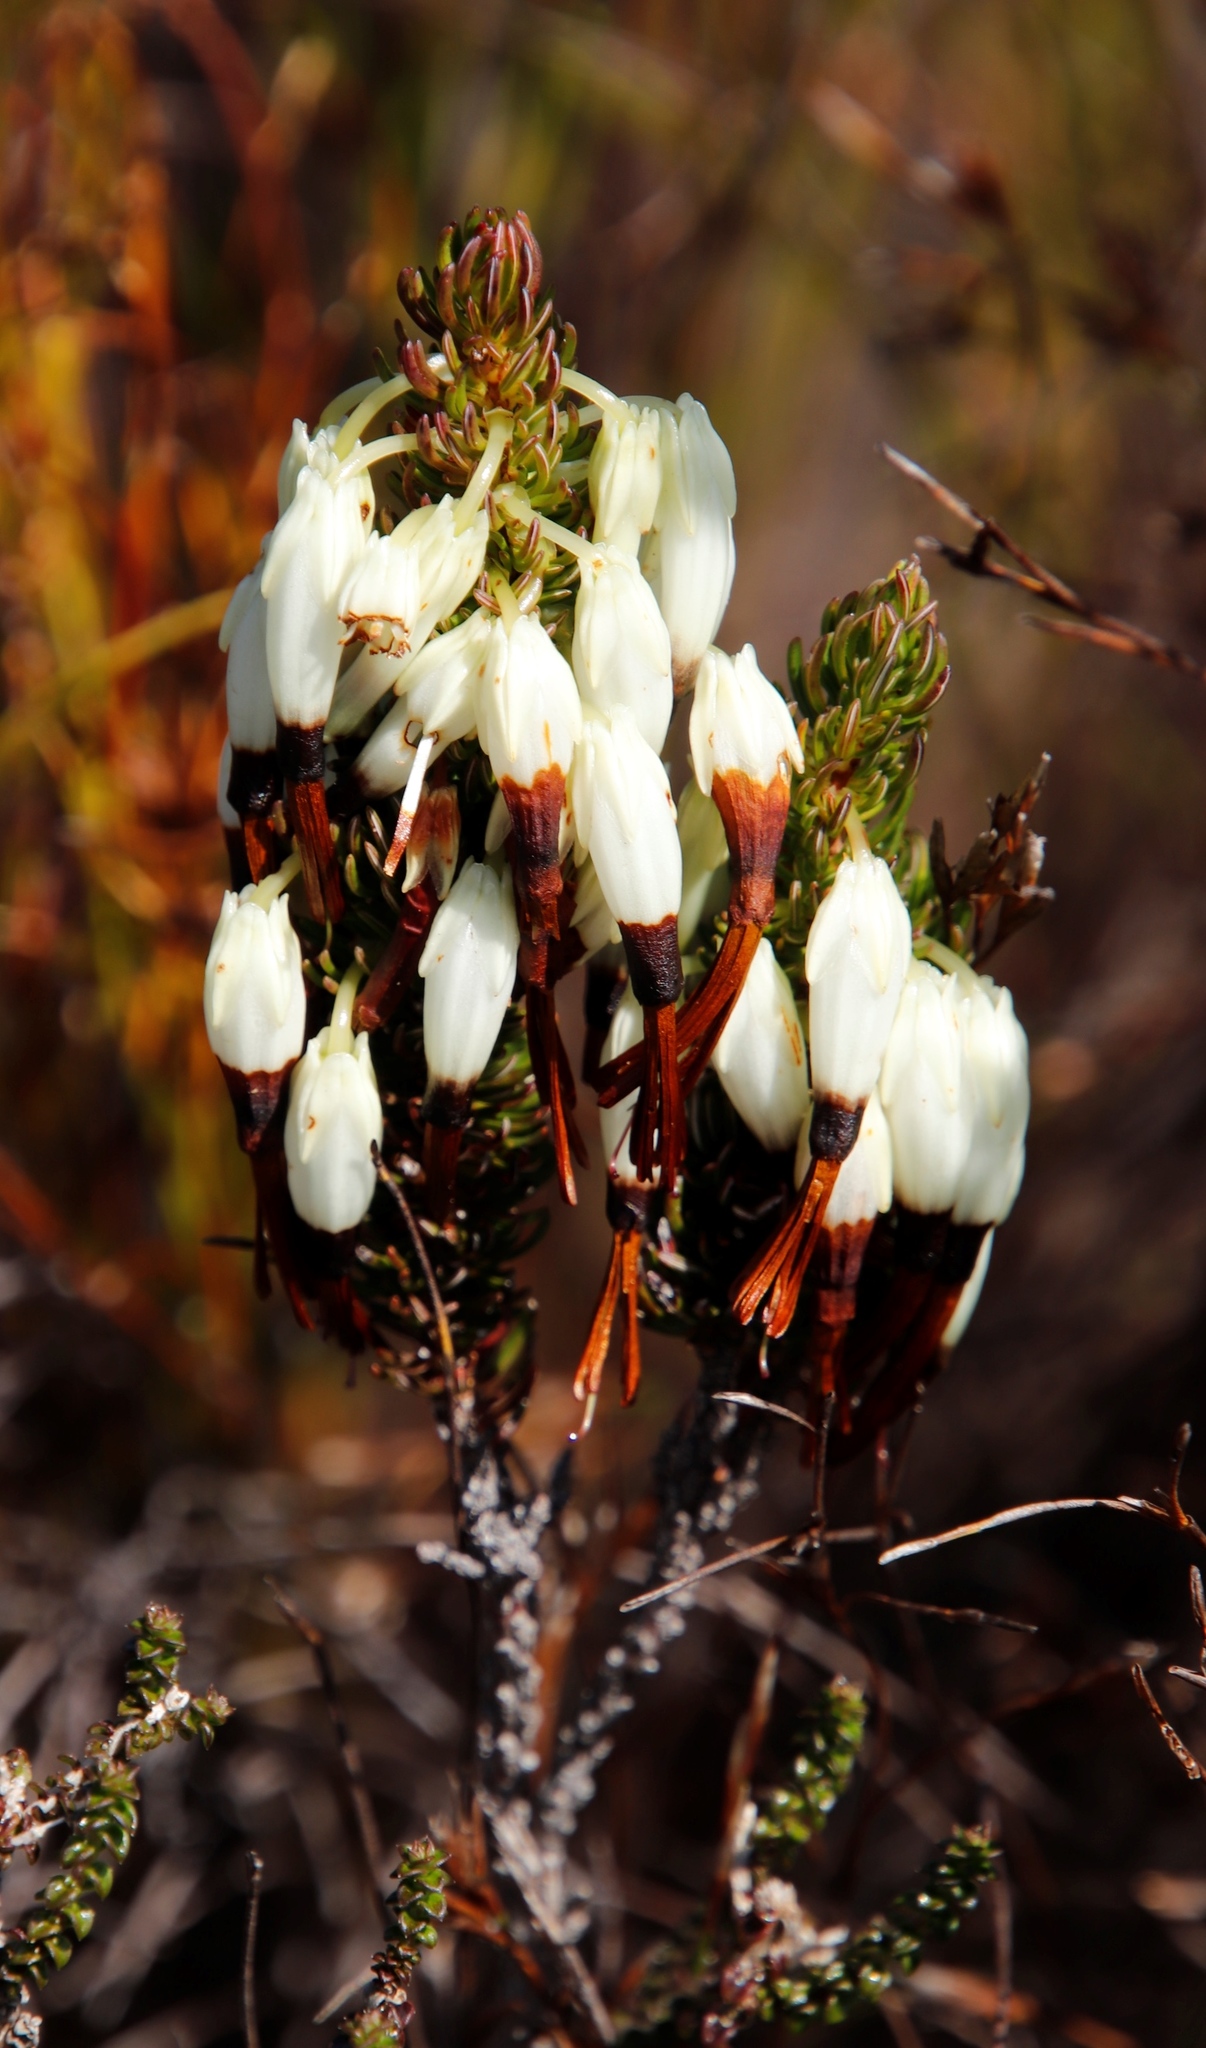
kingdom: Plantae
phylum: Tracheophyta
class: Magnoliopsida
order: Ericales
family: Ericaceae
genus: Erica
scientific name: Erica plukenetii
